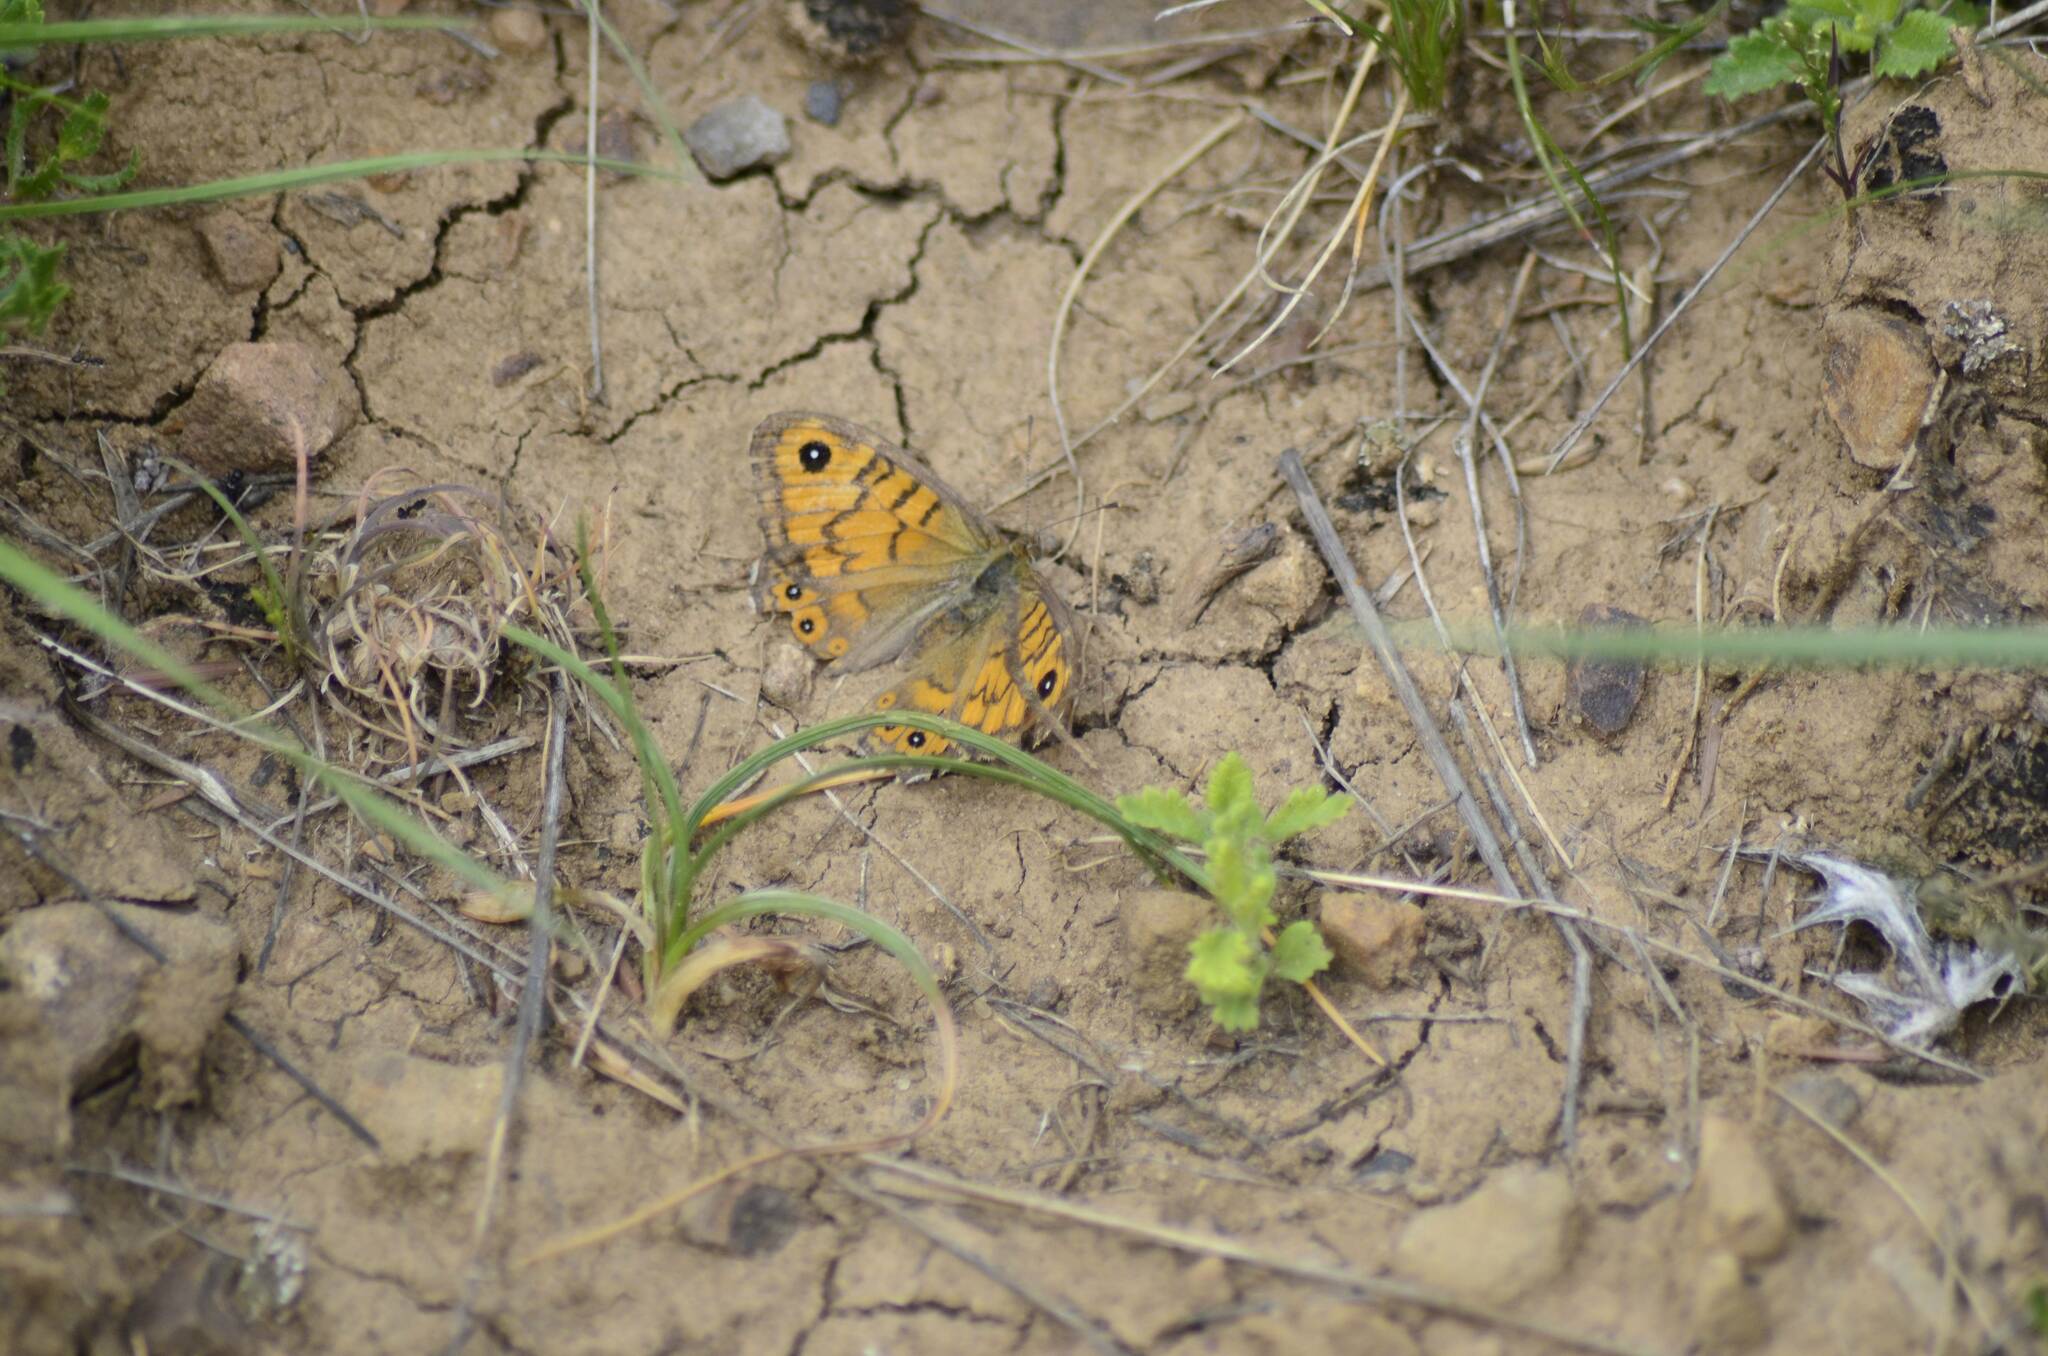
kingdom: Animalia
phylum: Arthropoda
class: Insecta
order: Lepidoptera
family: Nymphalidae
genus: Pararge
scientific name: Pararge Lasiommata megera
